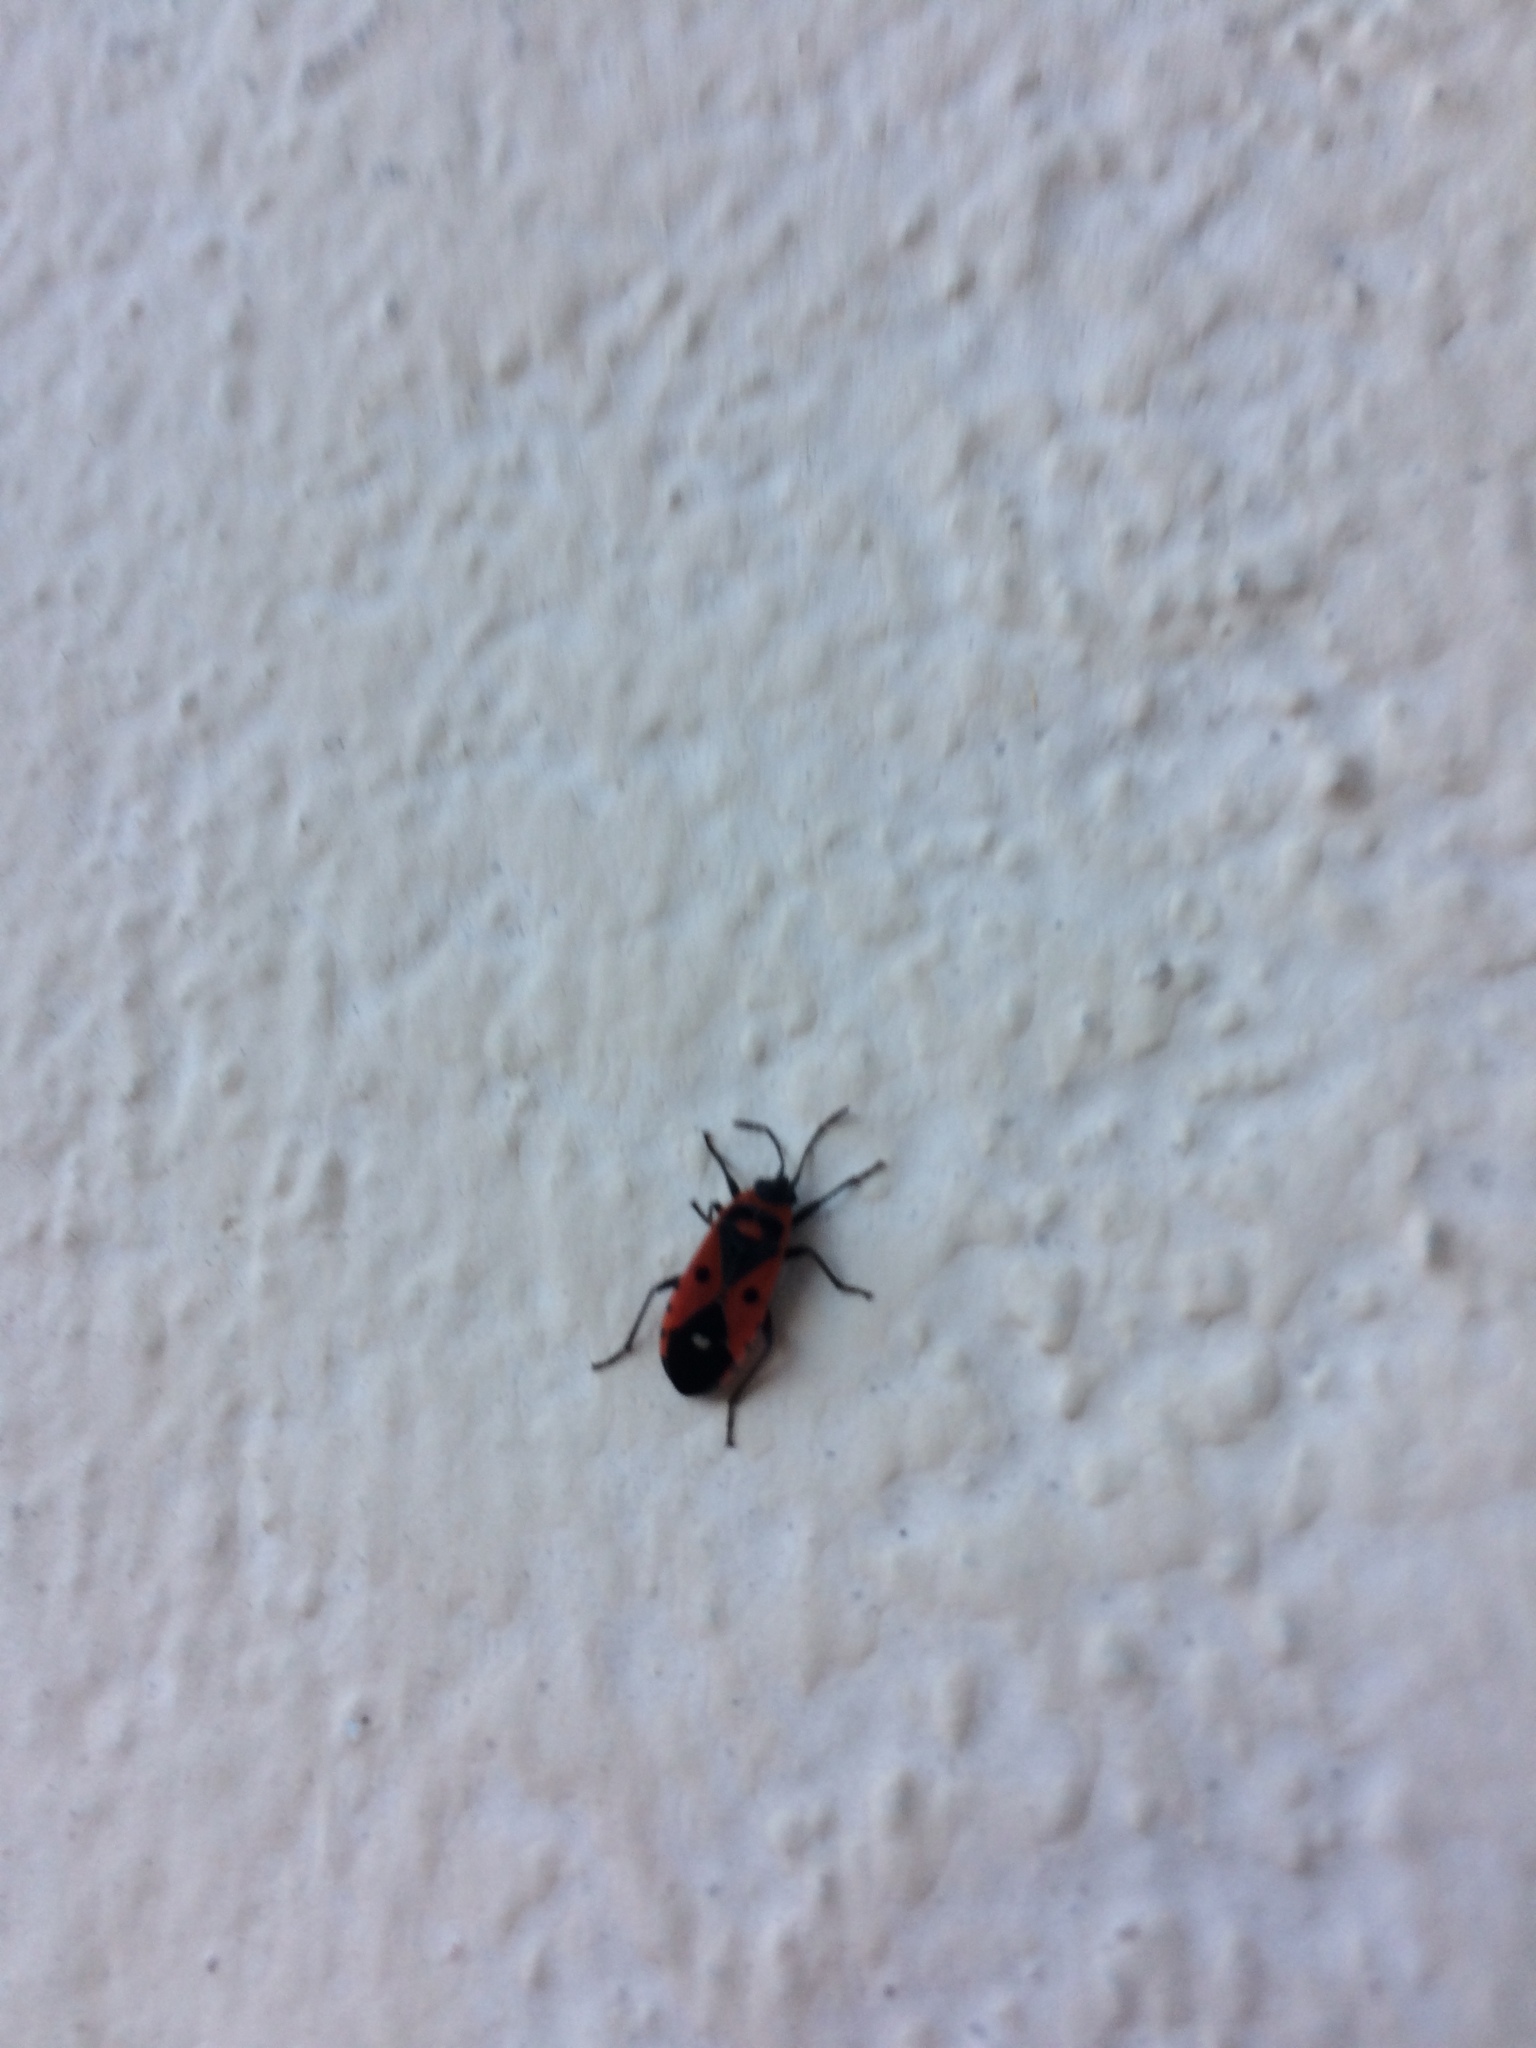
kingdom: Animalia
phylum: Arthropoda
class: Insecta
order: Hemiptera
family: Lygaeidae
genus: Melanocoryphus
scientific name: Melanocoryphus albomaculatus
